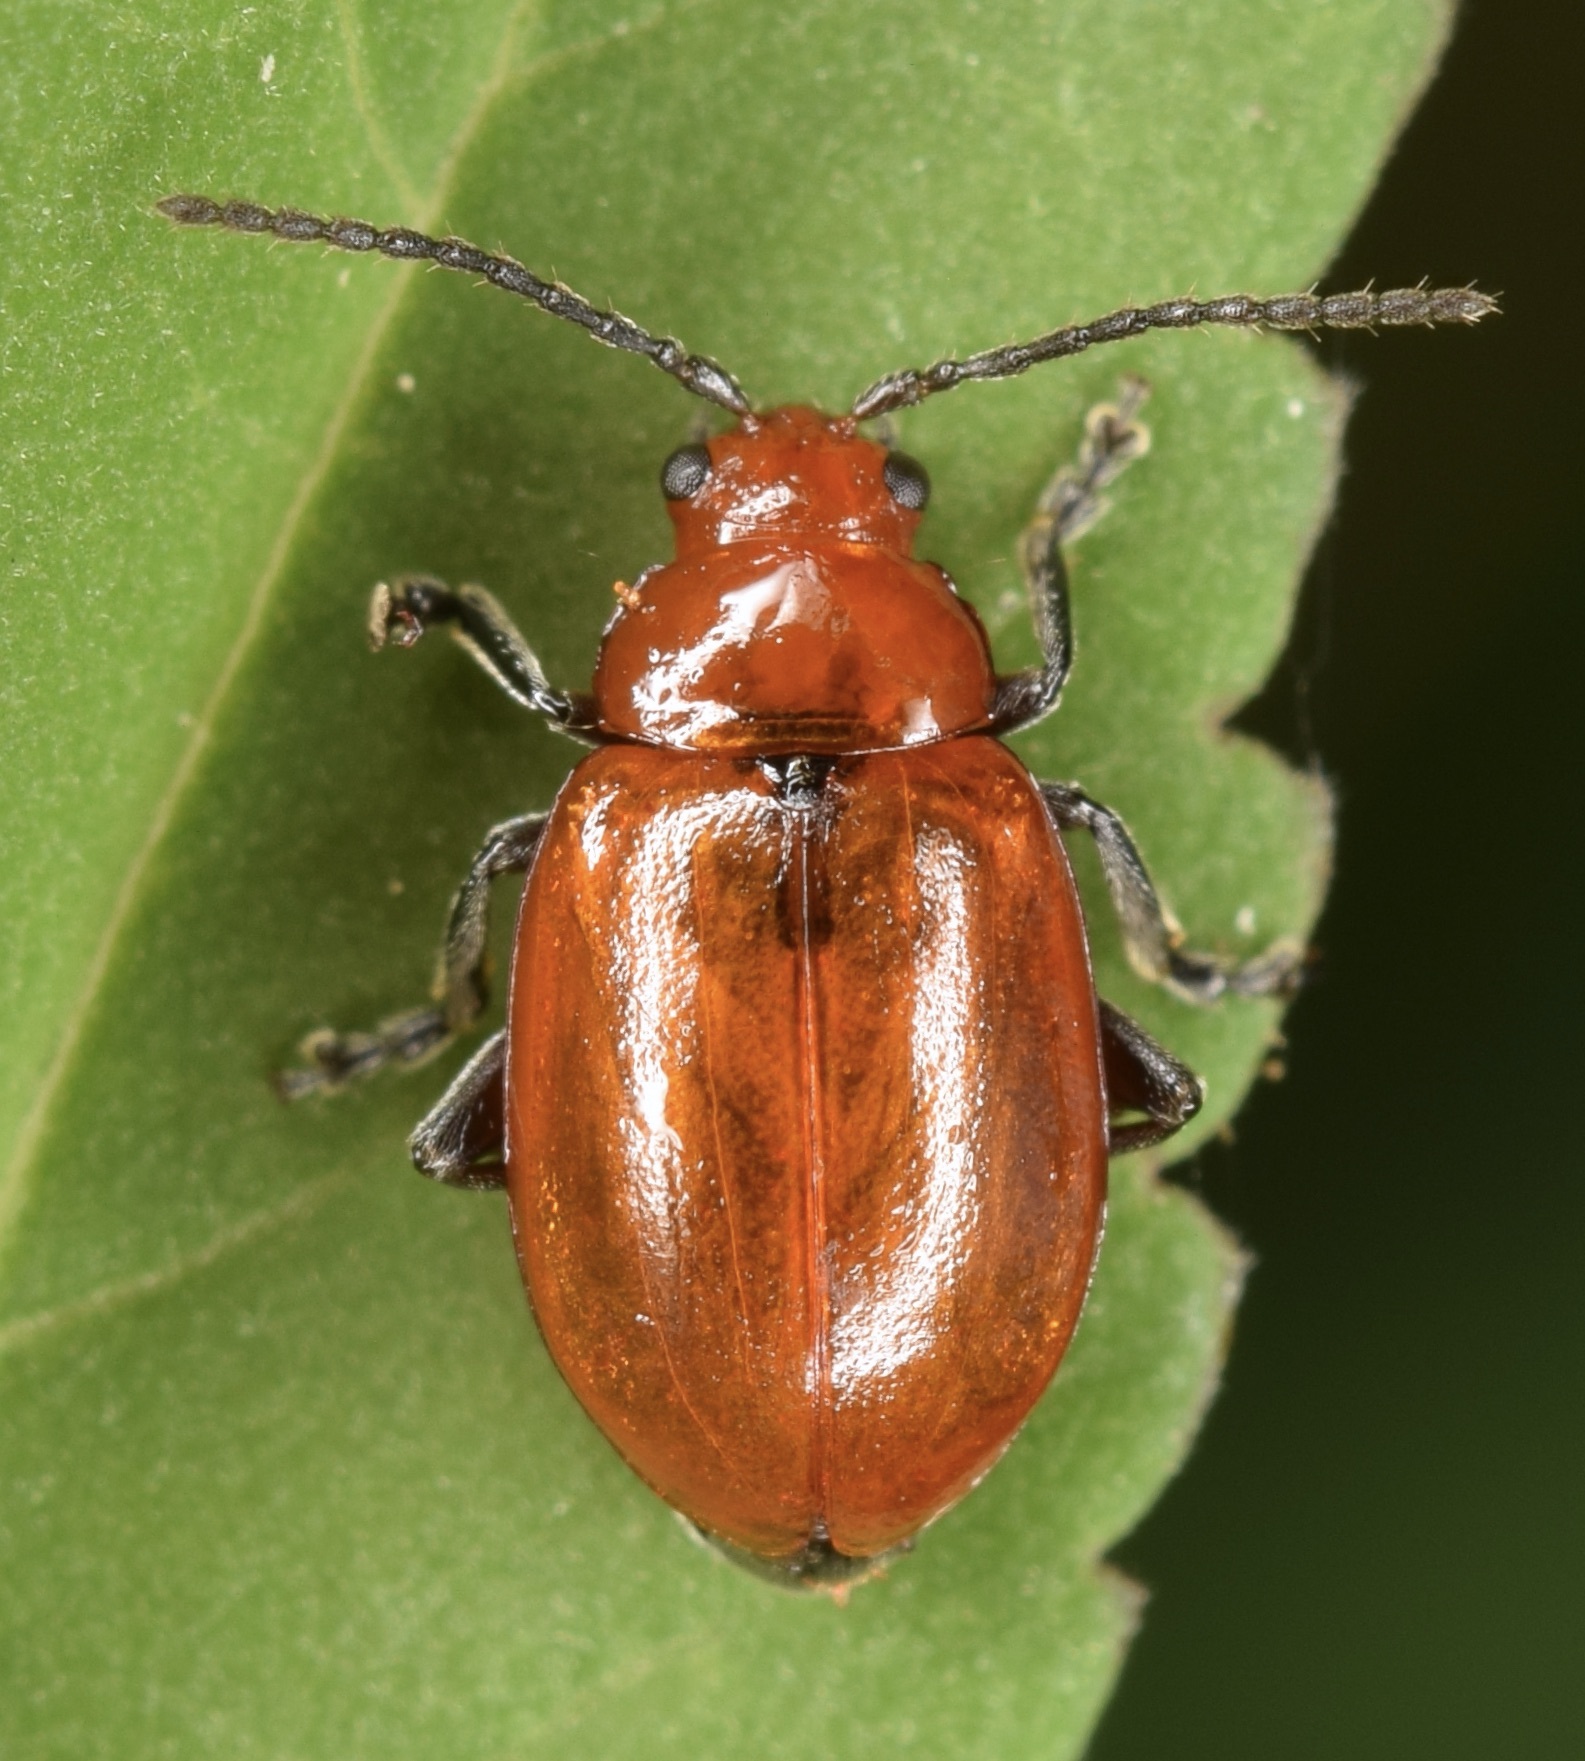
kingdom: Animalia
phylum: Arthropoda
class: Insecta
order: Coleoptera
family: Chrysomelidae
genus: Strabala
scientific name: Strabala rufa
